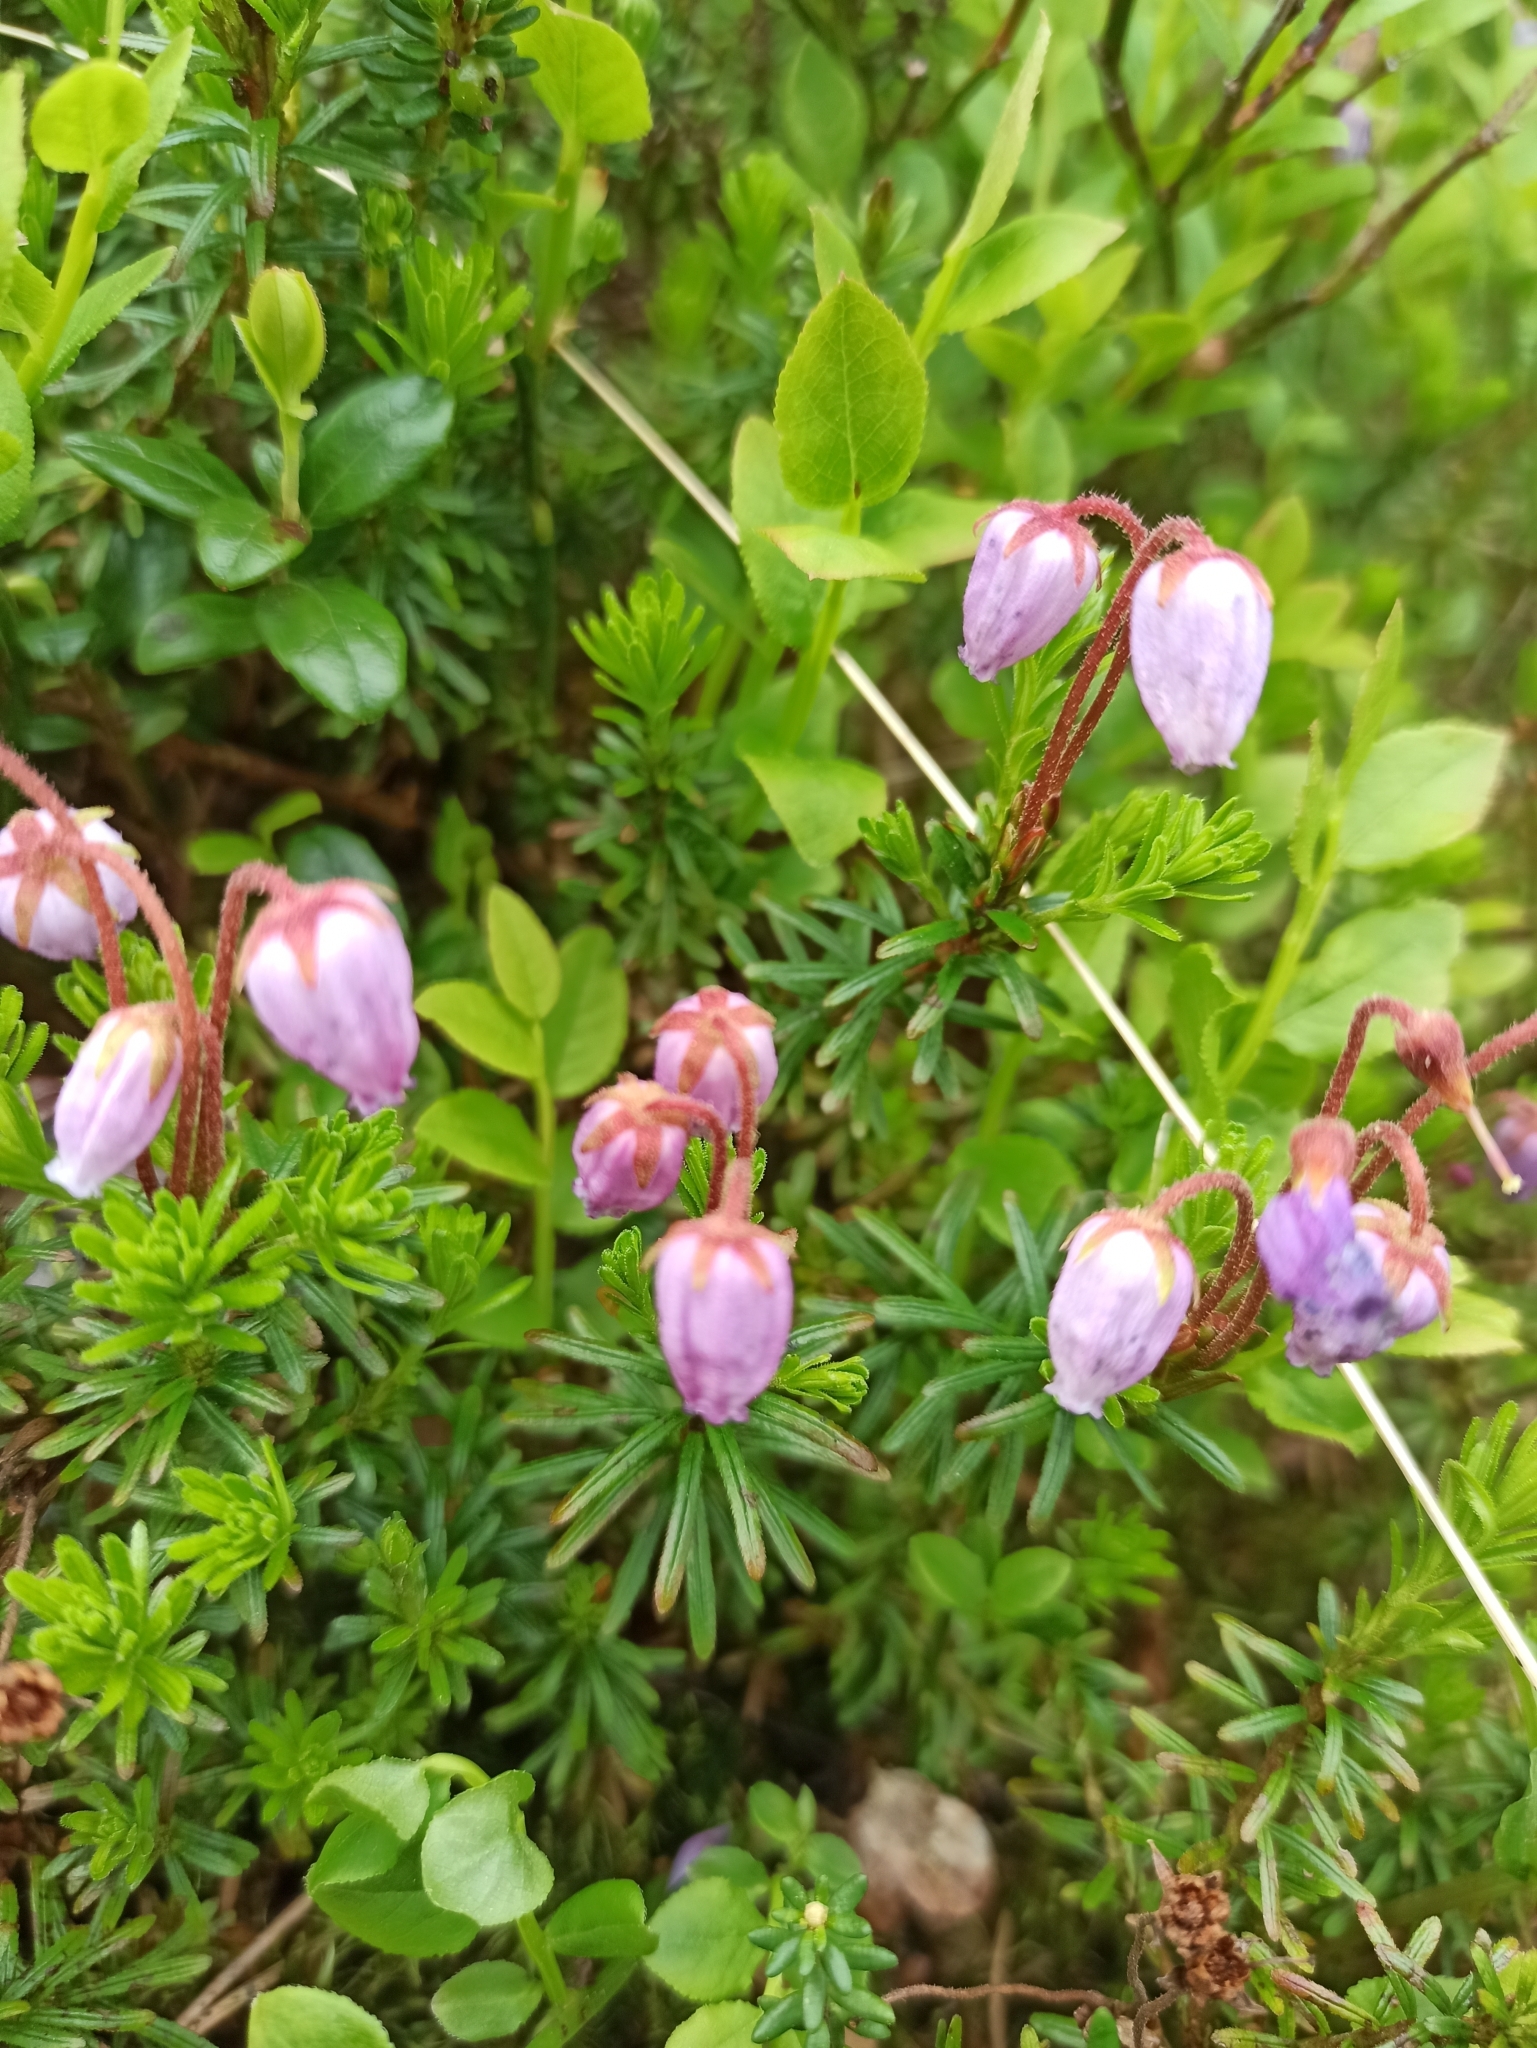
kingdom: Plantae
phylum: Tracheophyta
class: Magnoliopsida
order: Ericales
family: Ericaceae
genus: Phyllodoce
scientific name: Phyllodoce caerulea
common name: Blue heath
